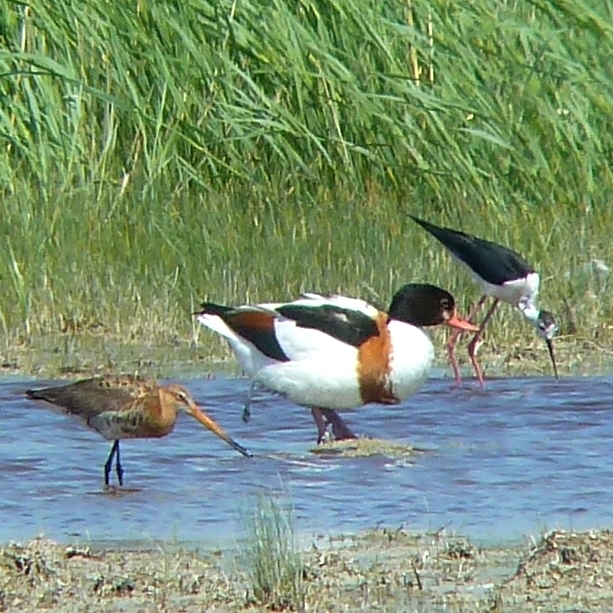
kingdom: Animalia
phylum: Chordata
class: Aves
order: Anseriformes
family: Anatidae
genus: Tadorna
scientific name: Tadorna tadorna
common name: Common shelduck
